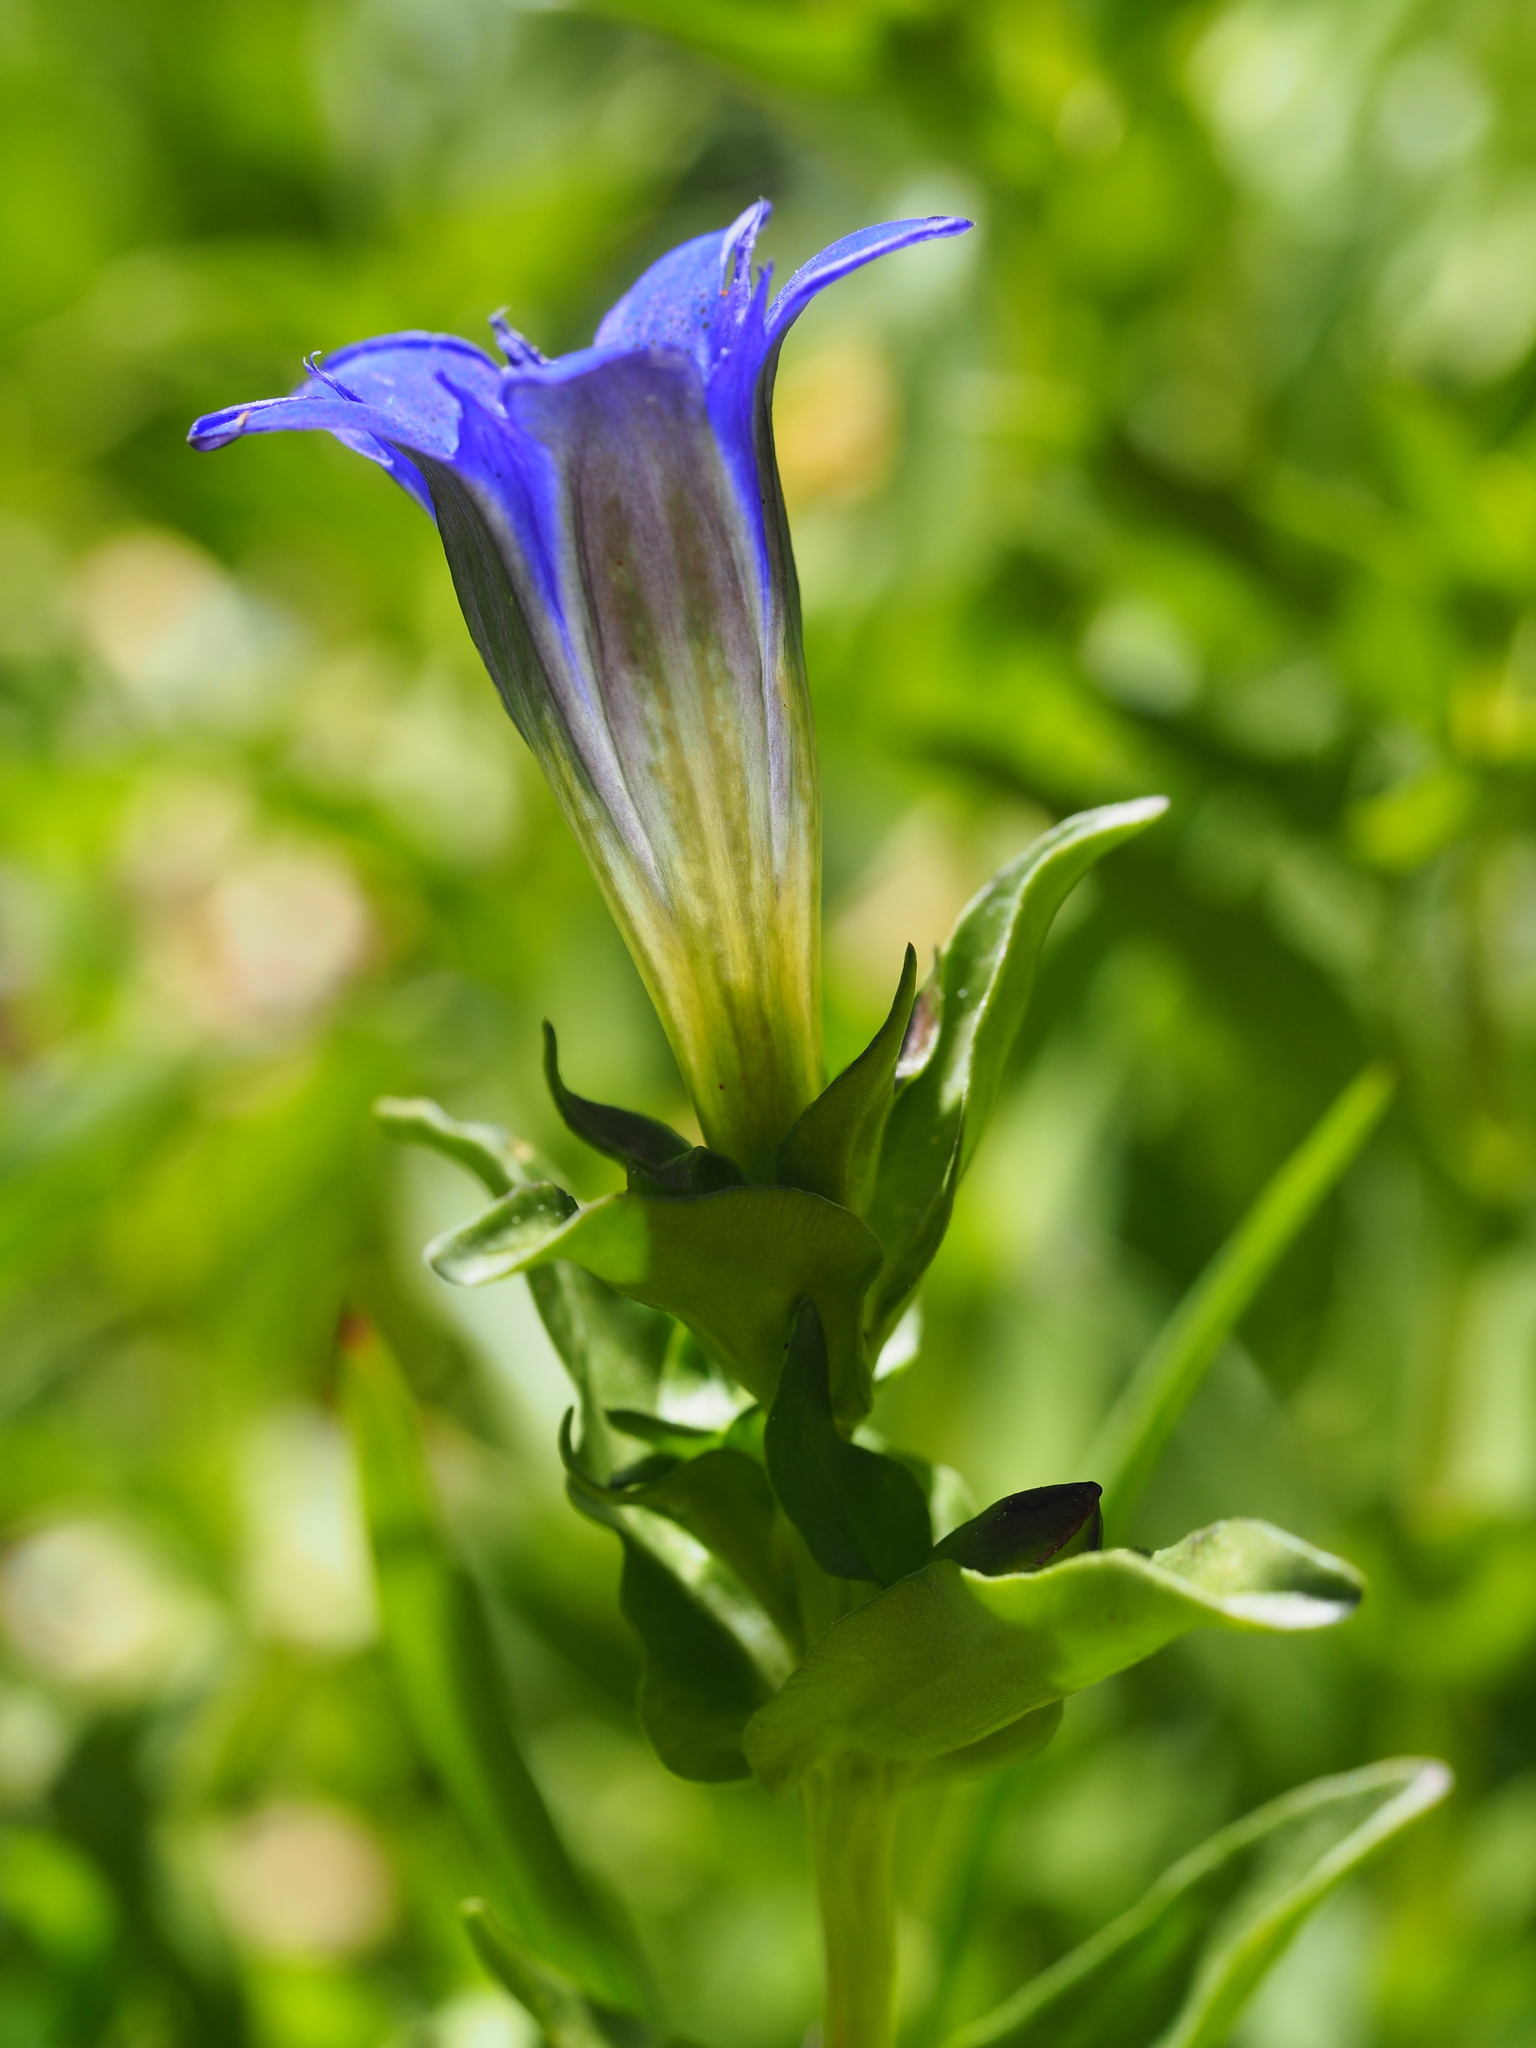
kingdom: Plantae
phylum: Tracheophyta
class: Magnoliopsida
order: Gentianales
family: Gentianaceae
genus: Gentiana
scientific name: Gentiana calycosa
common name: Rainier pleated gentian
